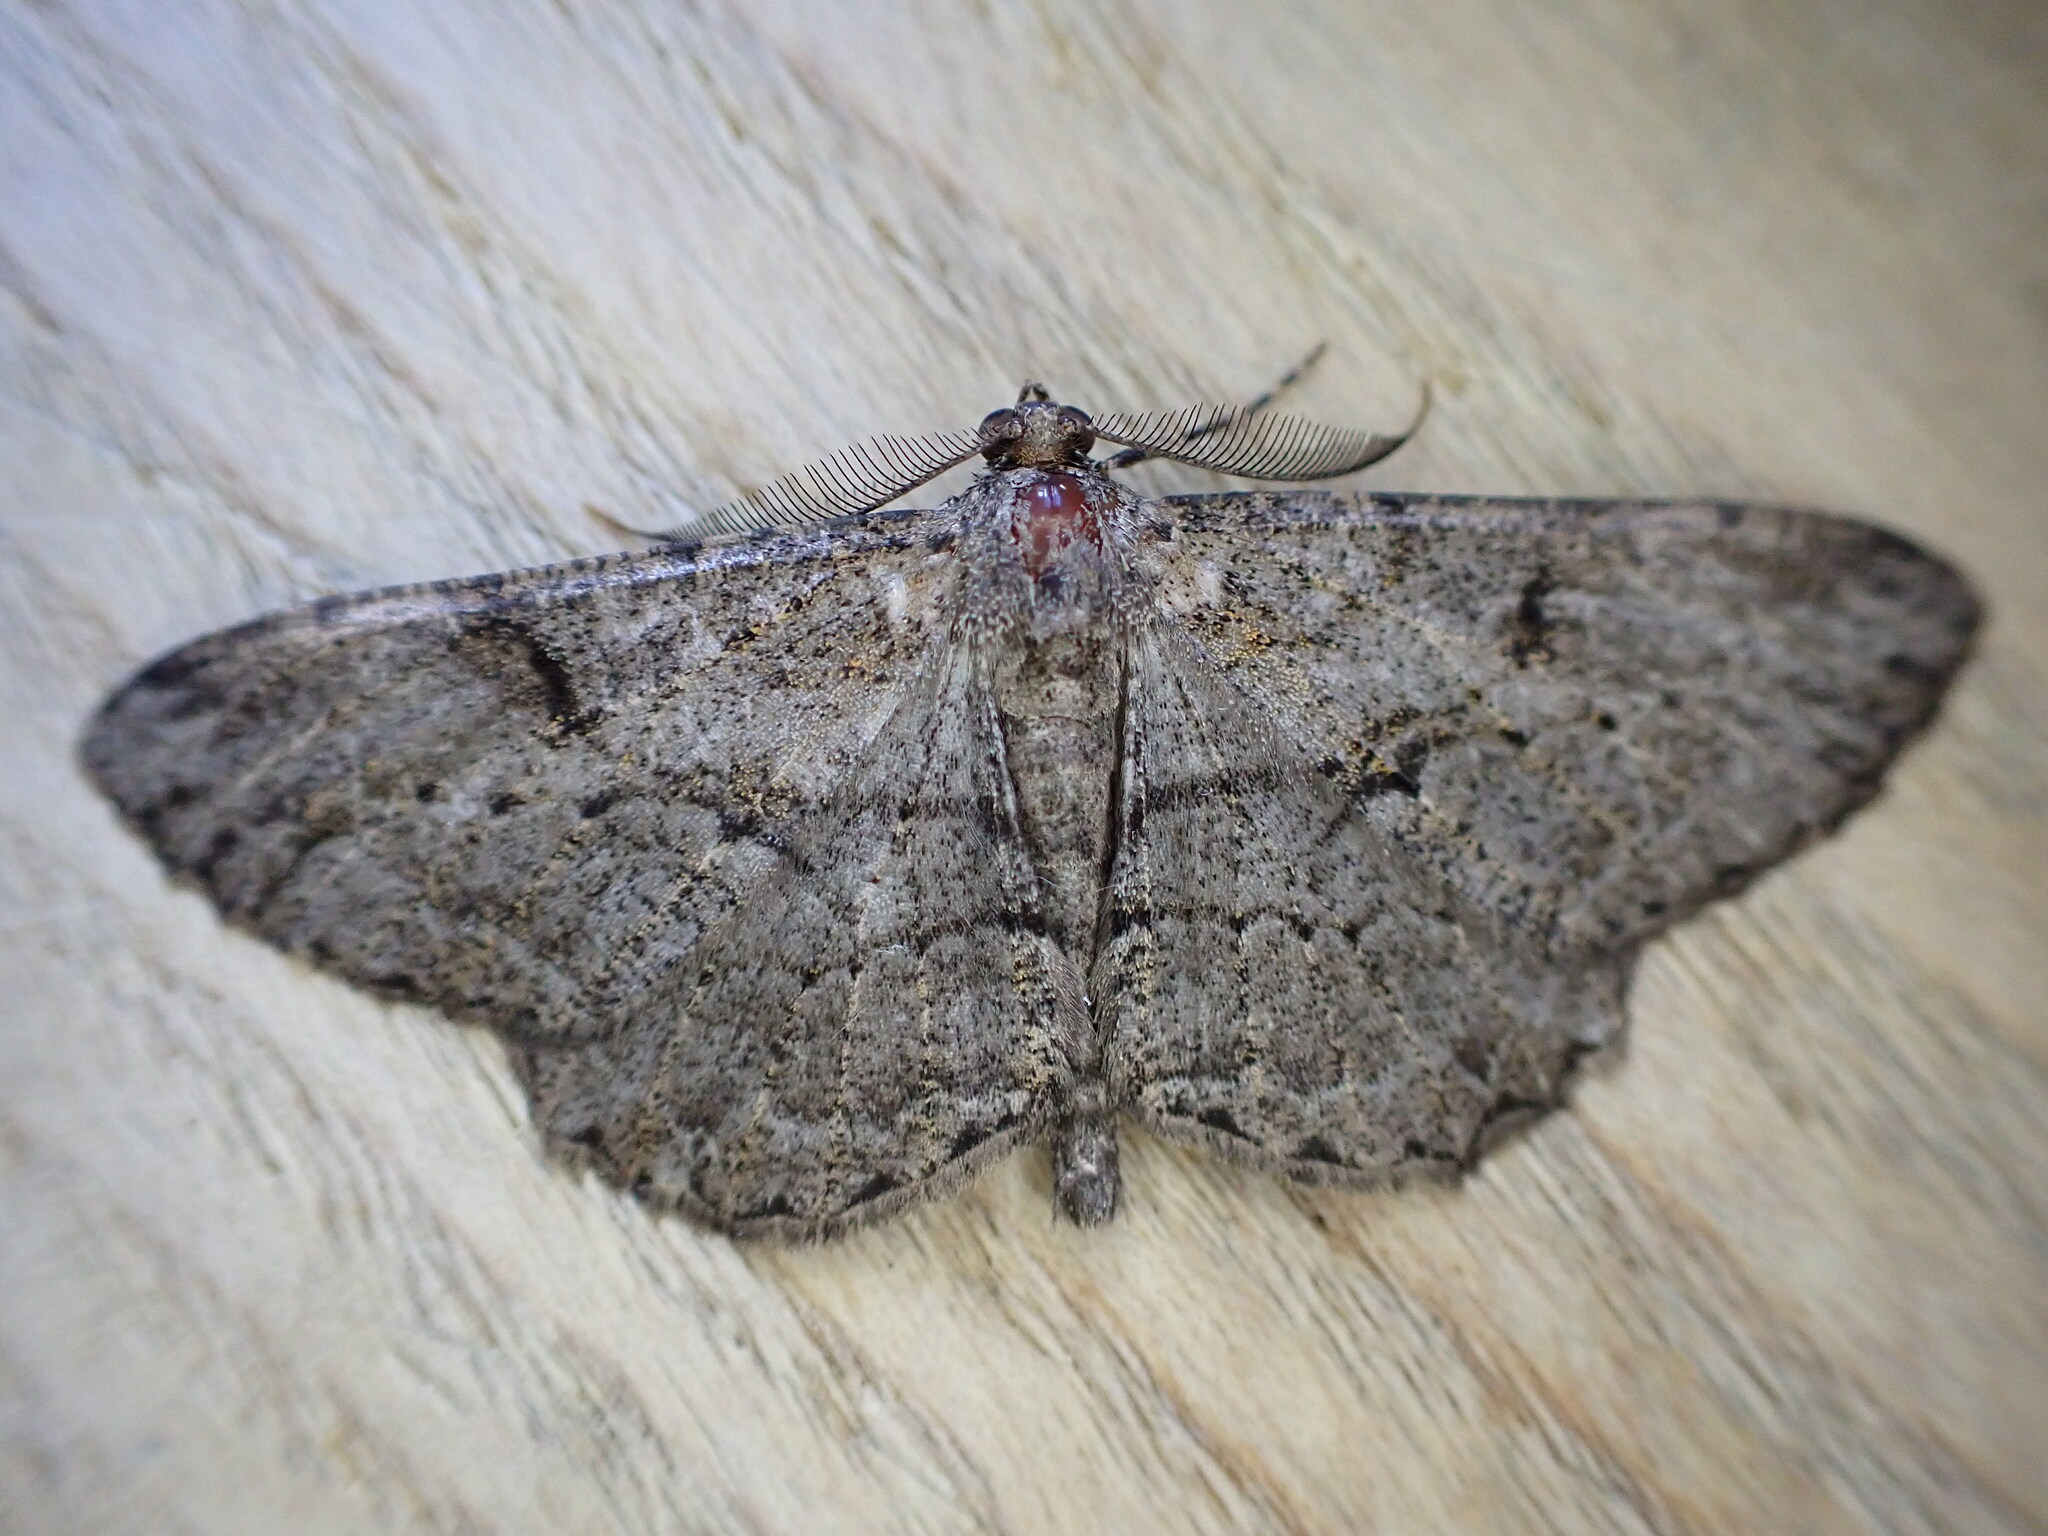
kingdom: Animalia
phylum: Arthropoda
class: Insecta
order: Lepidoptera
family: Geometridae
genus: Peribatodes
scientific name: Peribatodes rhomboidaria
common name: Willow beauty
